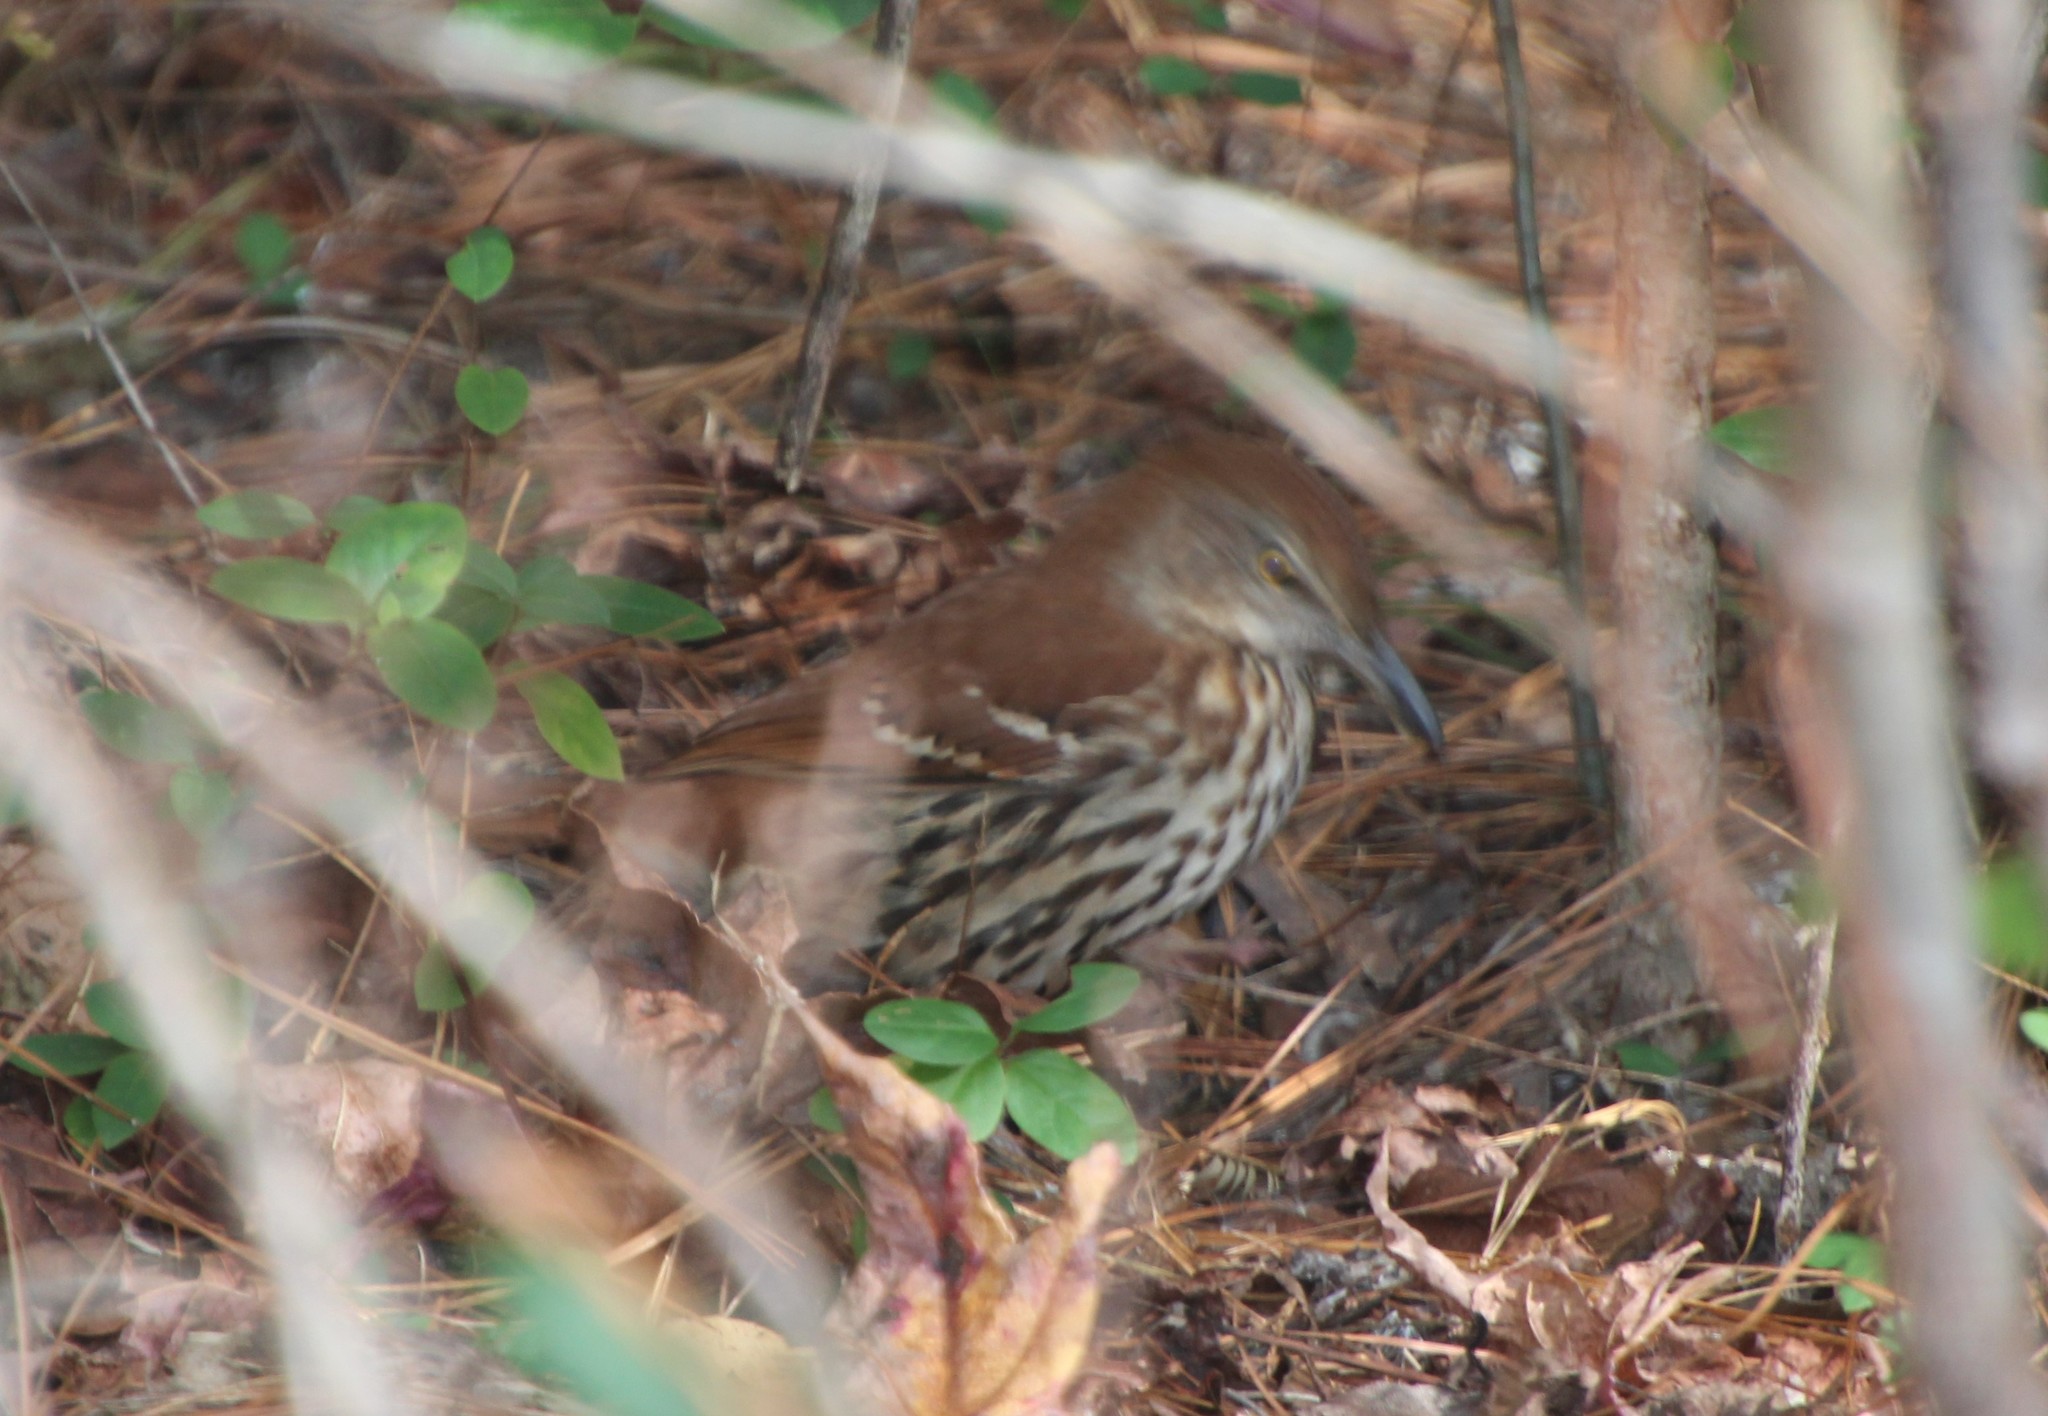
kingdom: Animalia
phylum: Chordata
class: Aves
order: Passeriformes
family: Mimidae
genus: Toxostoma
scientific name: Toxostoma rufum
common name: Brown thrasher
